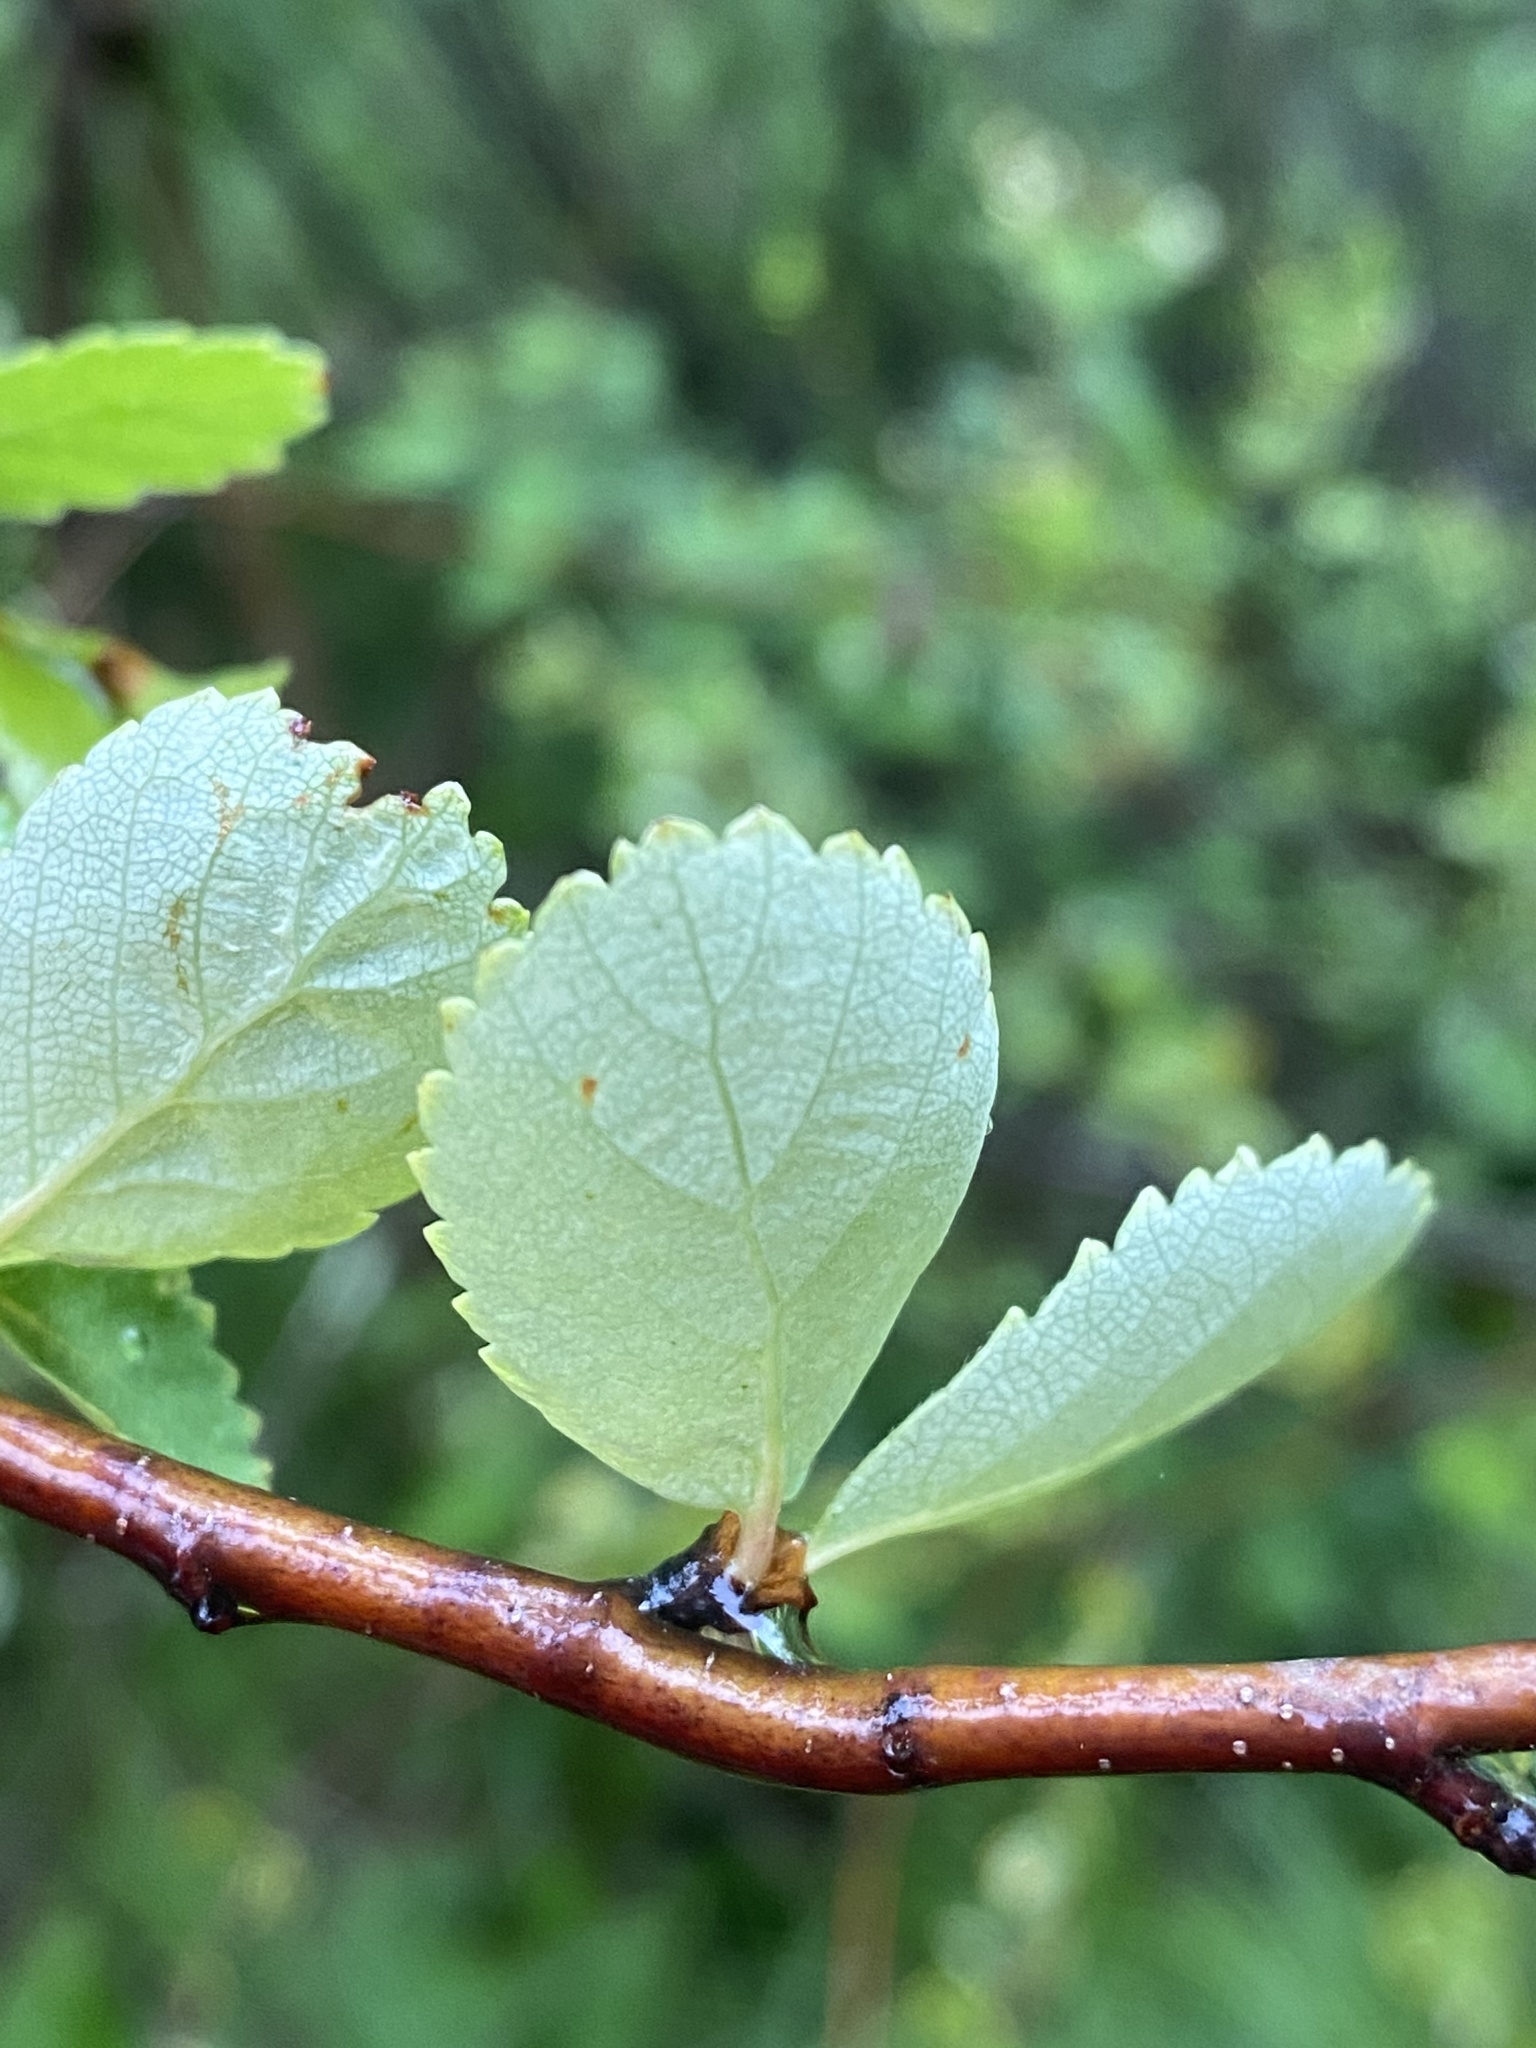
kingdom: Plantae
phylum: Tracheophyta
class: Magnoliopsida
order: Fagales
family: Betulaceae
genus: Betula
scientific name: Betula pumila
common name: Bog birch
